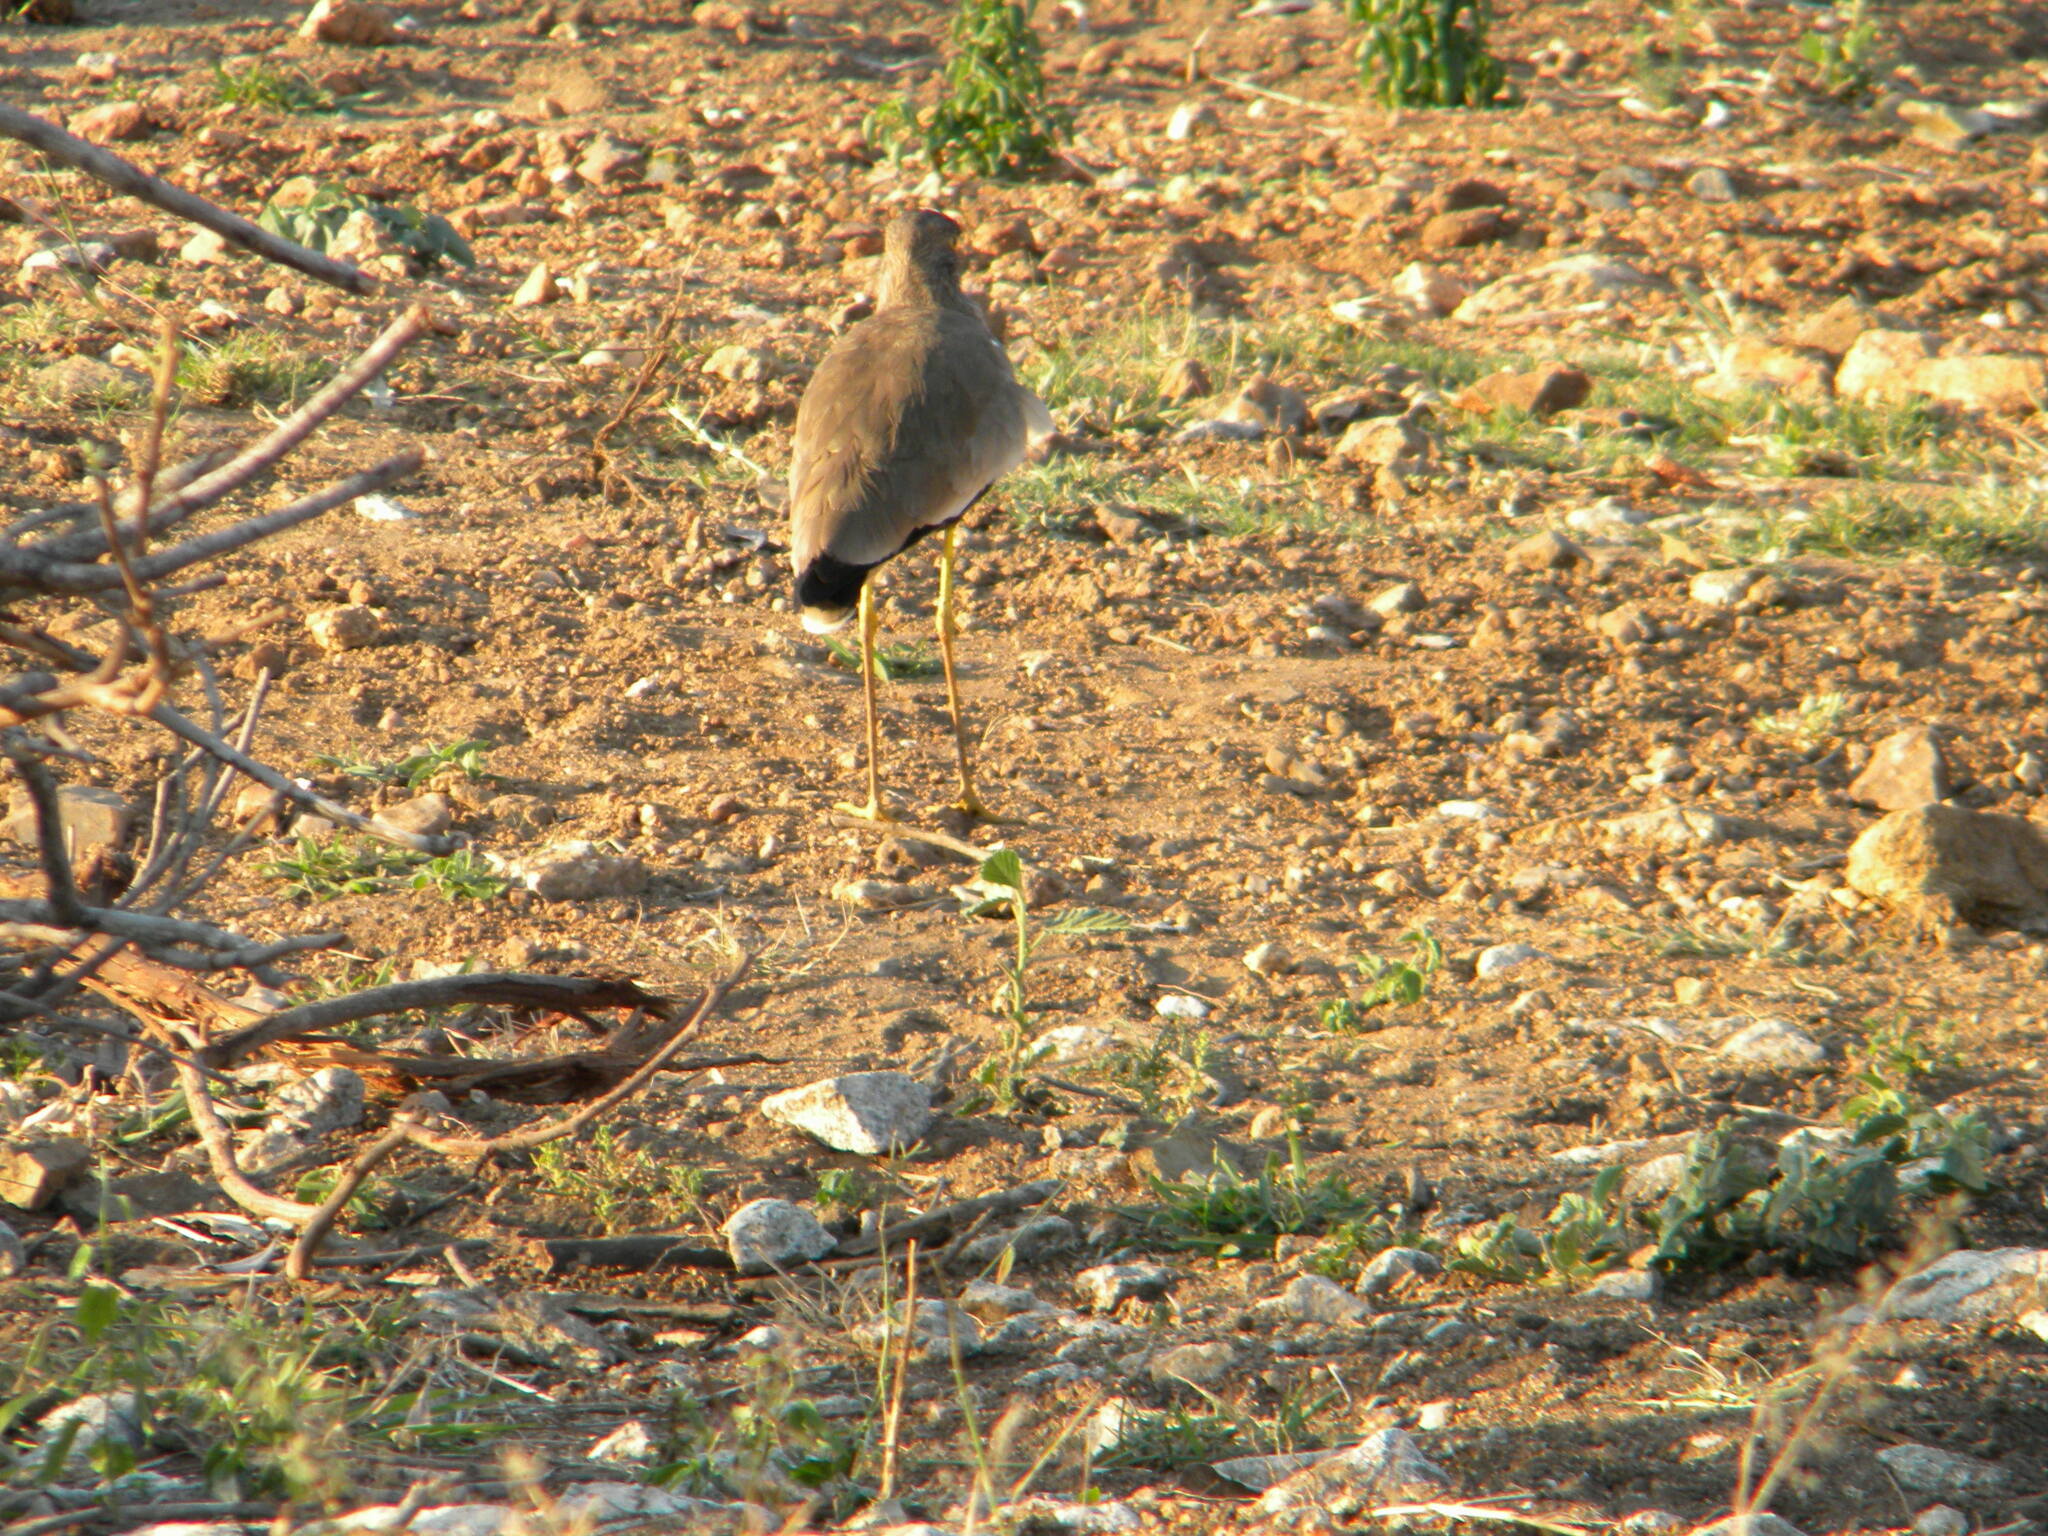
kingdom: Animalia
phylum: Chordata
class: Aves
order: Charadriiformes
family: Charadriidae
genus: Vanellus
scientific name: Vanellus senegallus
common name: African wattled lapwing
